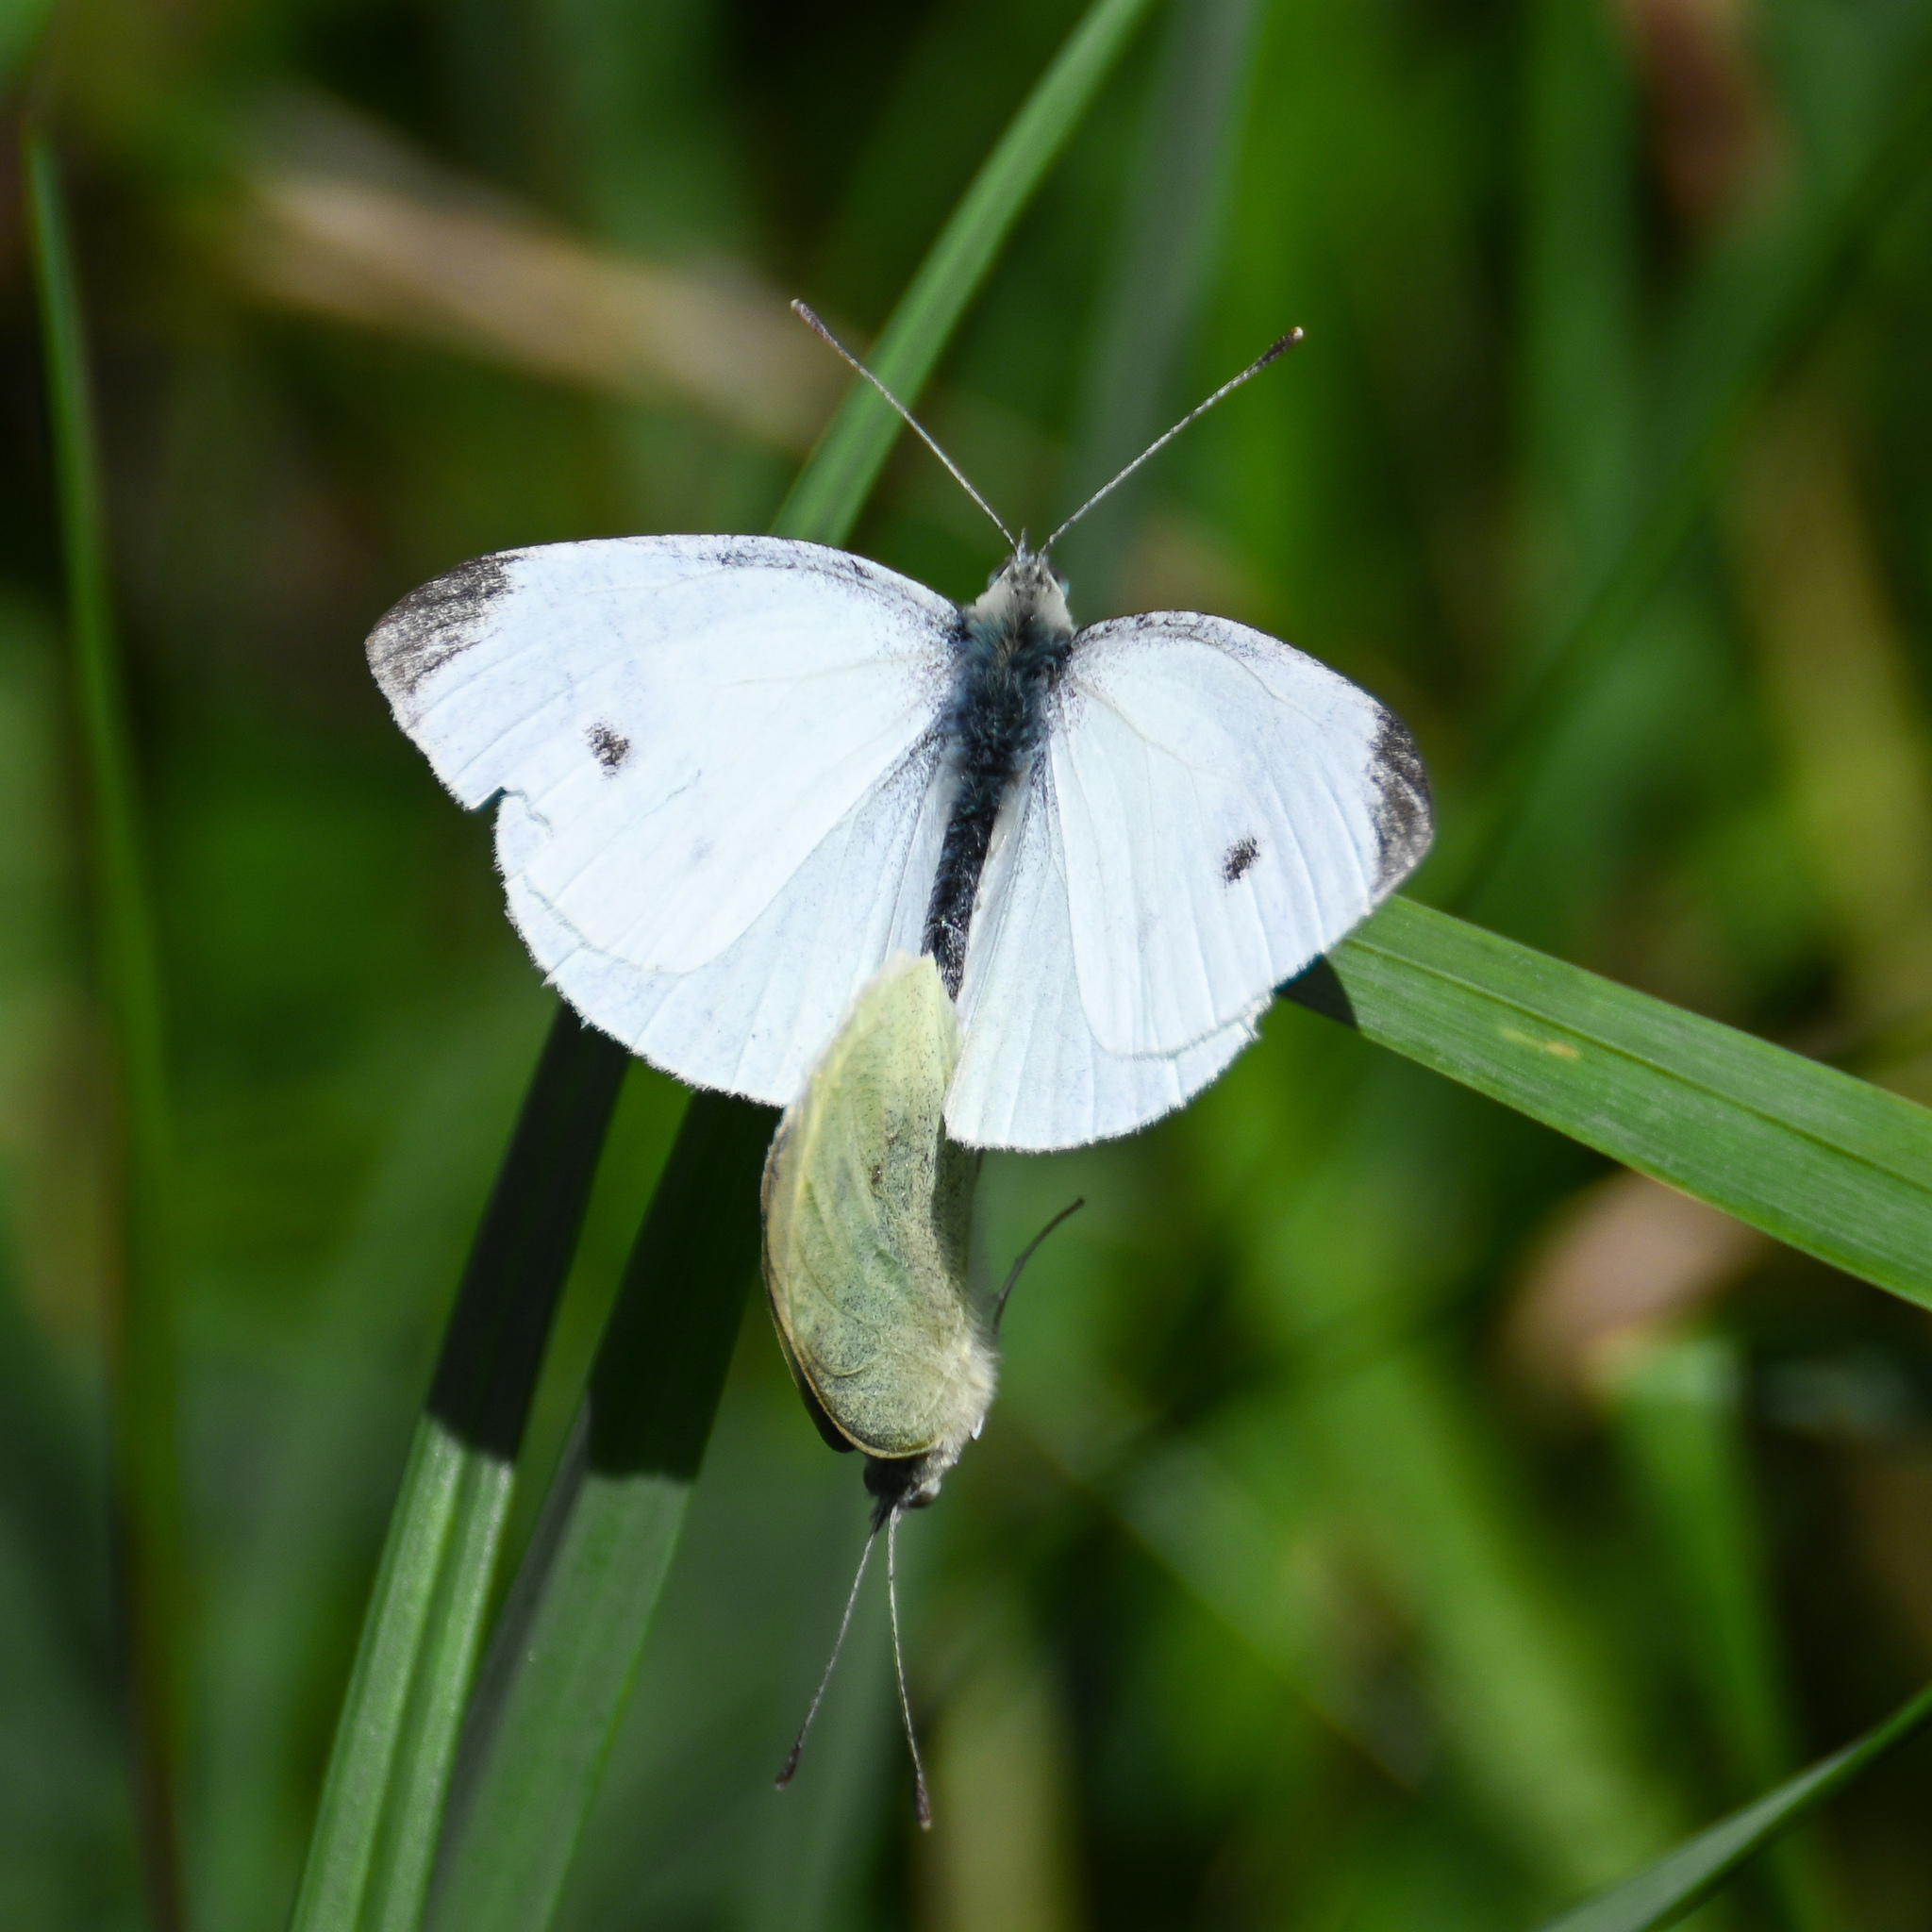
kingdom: Animalia
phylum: Arthropoda
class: Insecta
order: Lepidoptera
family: Pieridae
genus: Pieris
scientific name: Pieris rapae
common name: Small white
